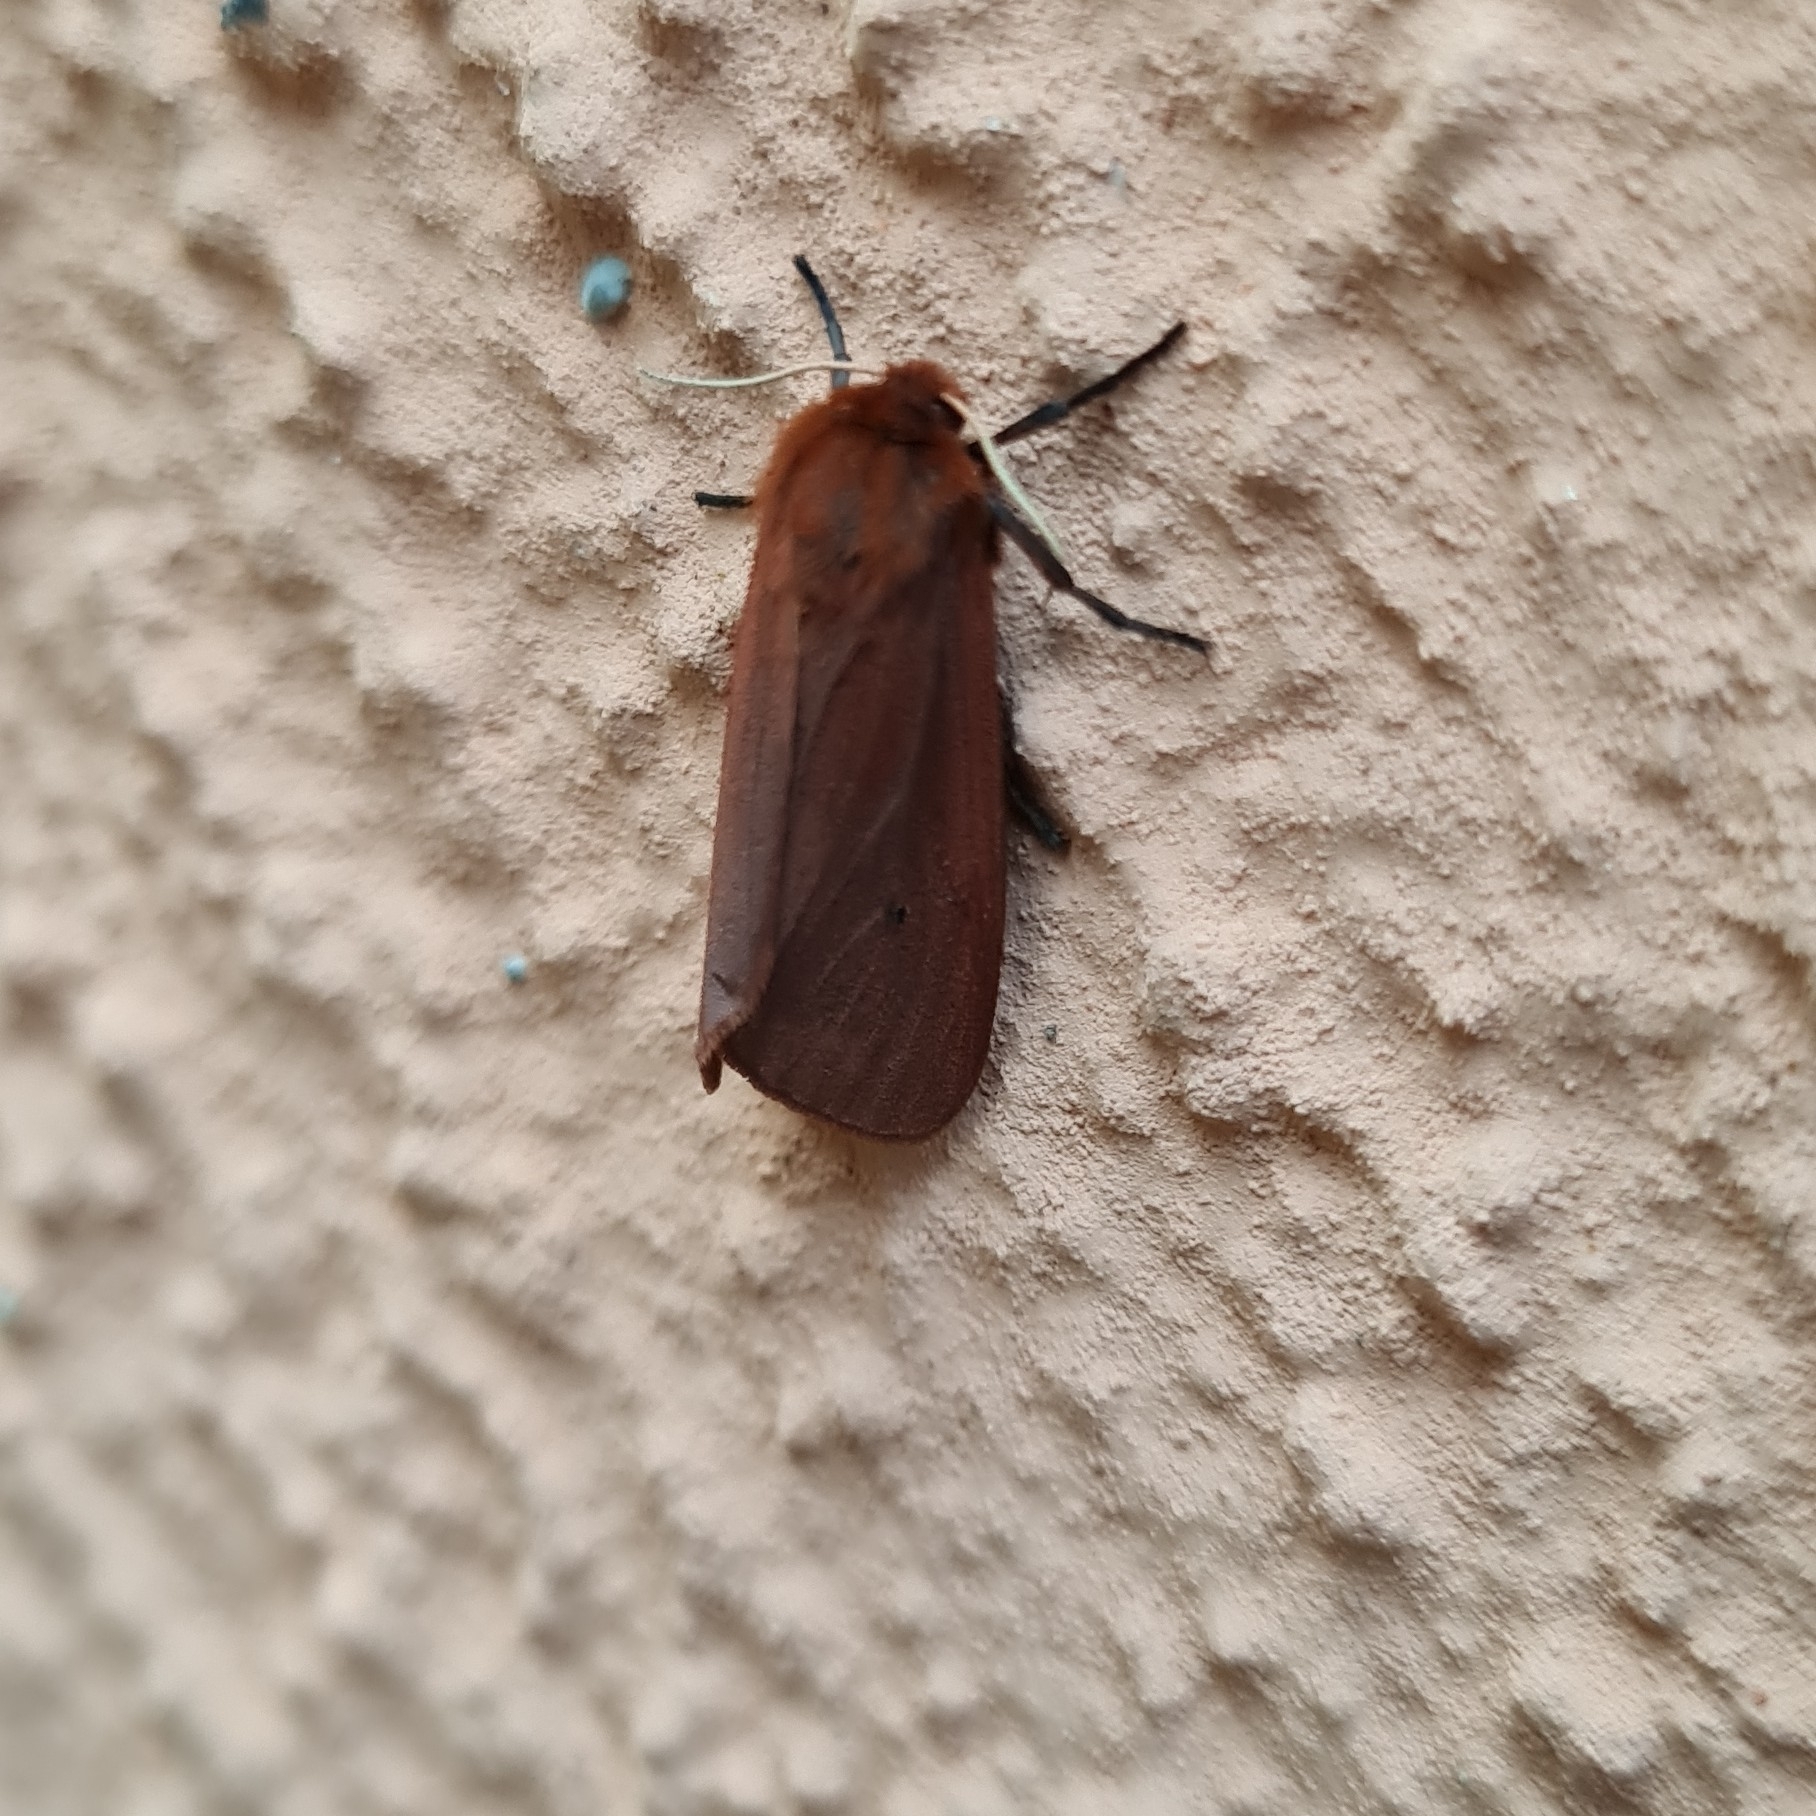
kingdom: Animalia
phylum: Arthropoda
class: Insecta
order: Lepidoptera
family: Erebidae
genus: Phragmatobia
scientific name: Phragmatobia fuliginosa
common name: Ruby tiger
